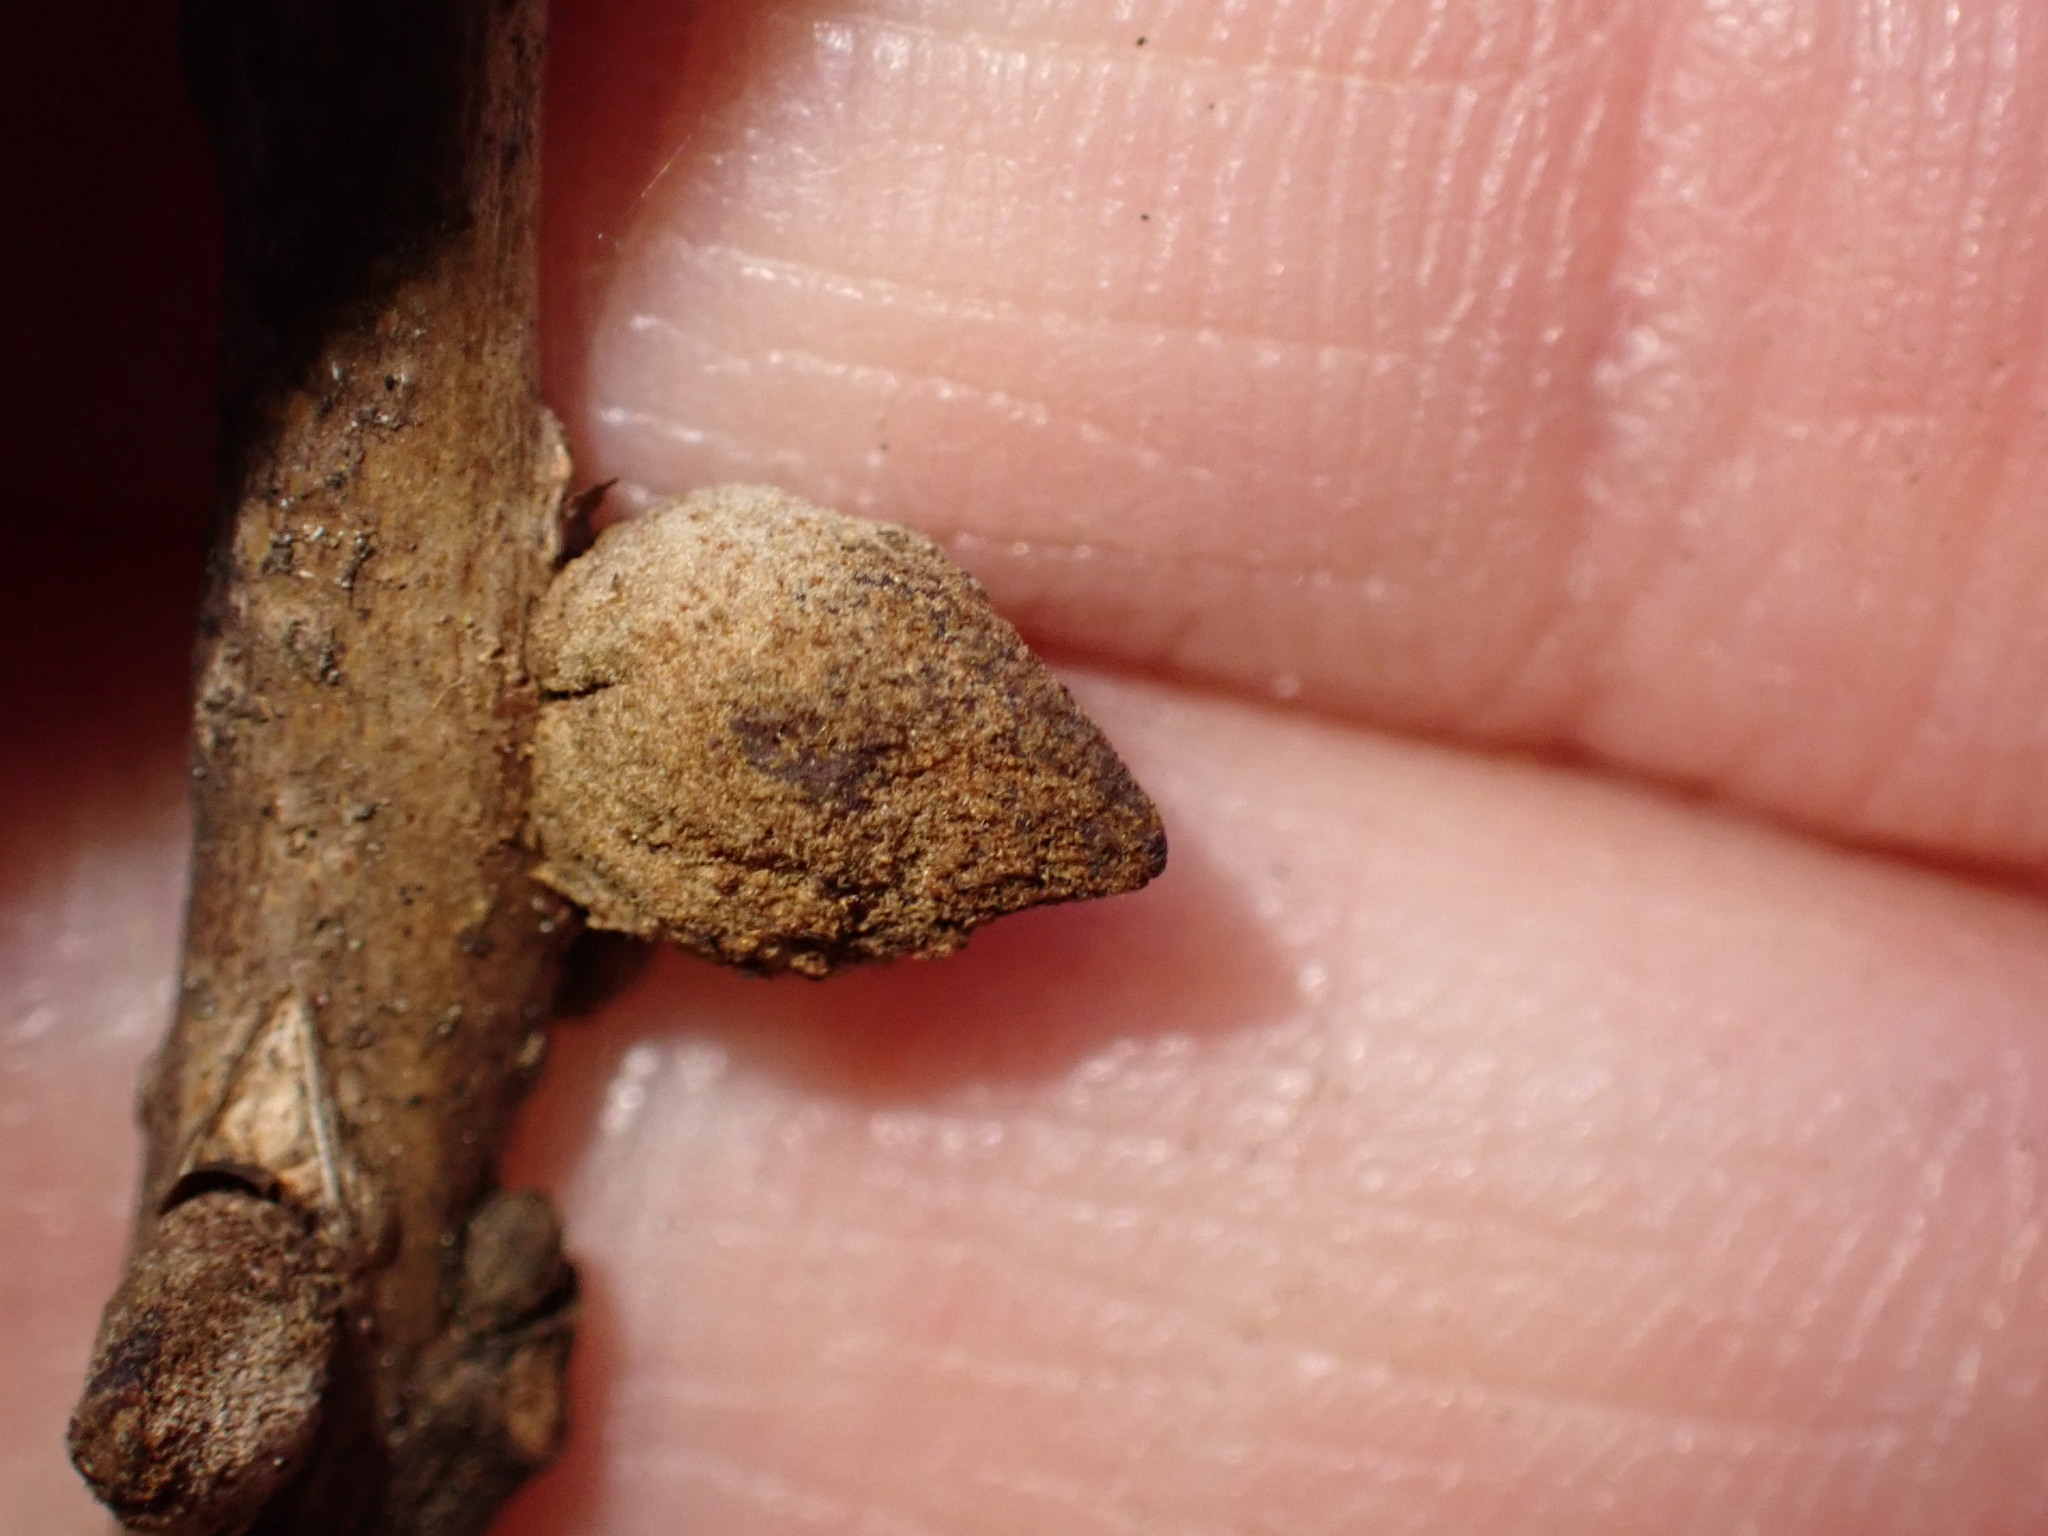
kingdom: Animalia
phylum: Arthropoda
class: Insecta
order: Hymenoptera
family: Cynipidae
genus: Disholcaspis
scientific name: Disholcaspis
